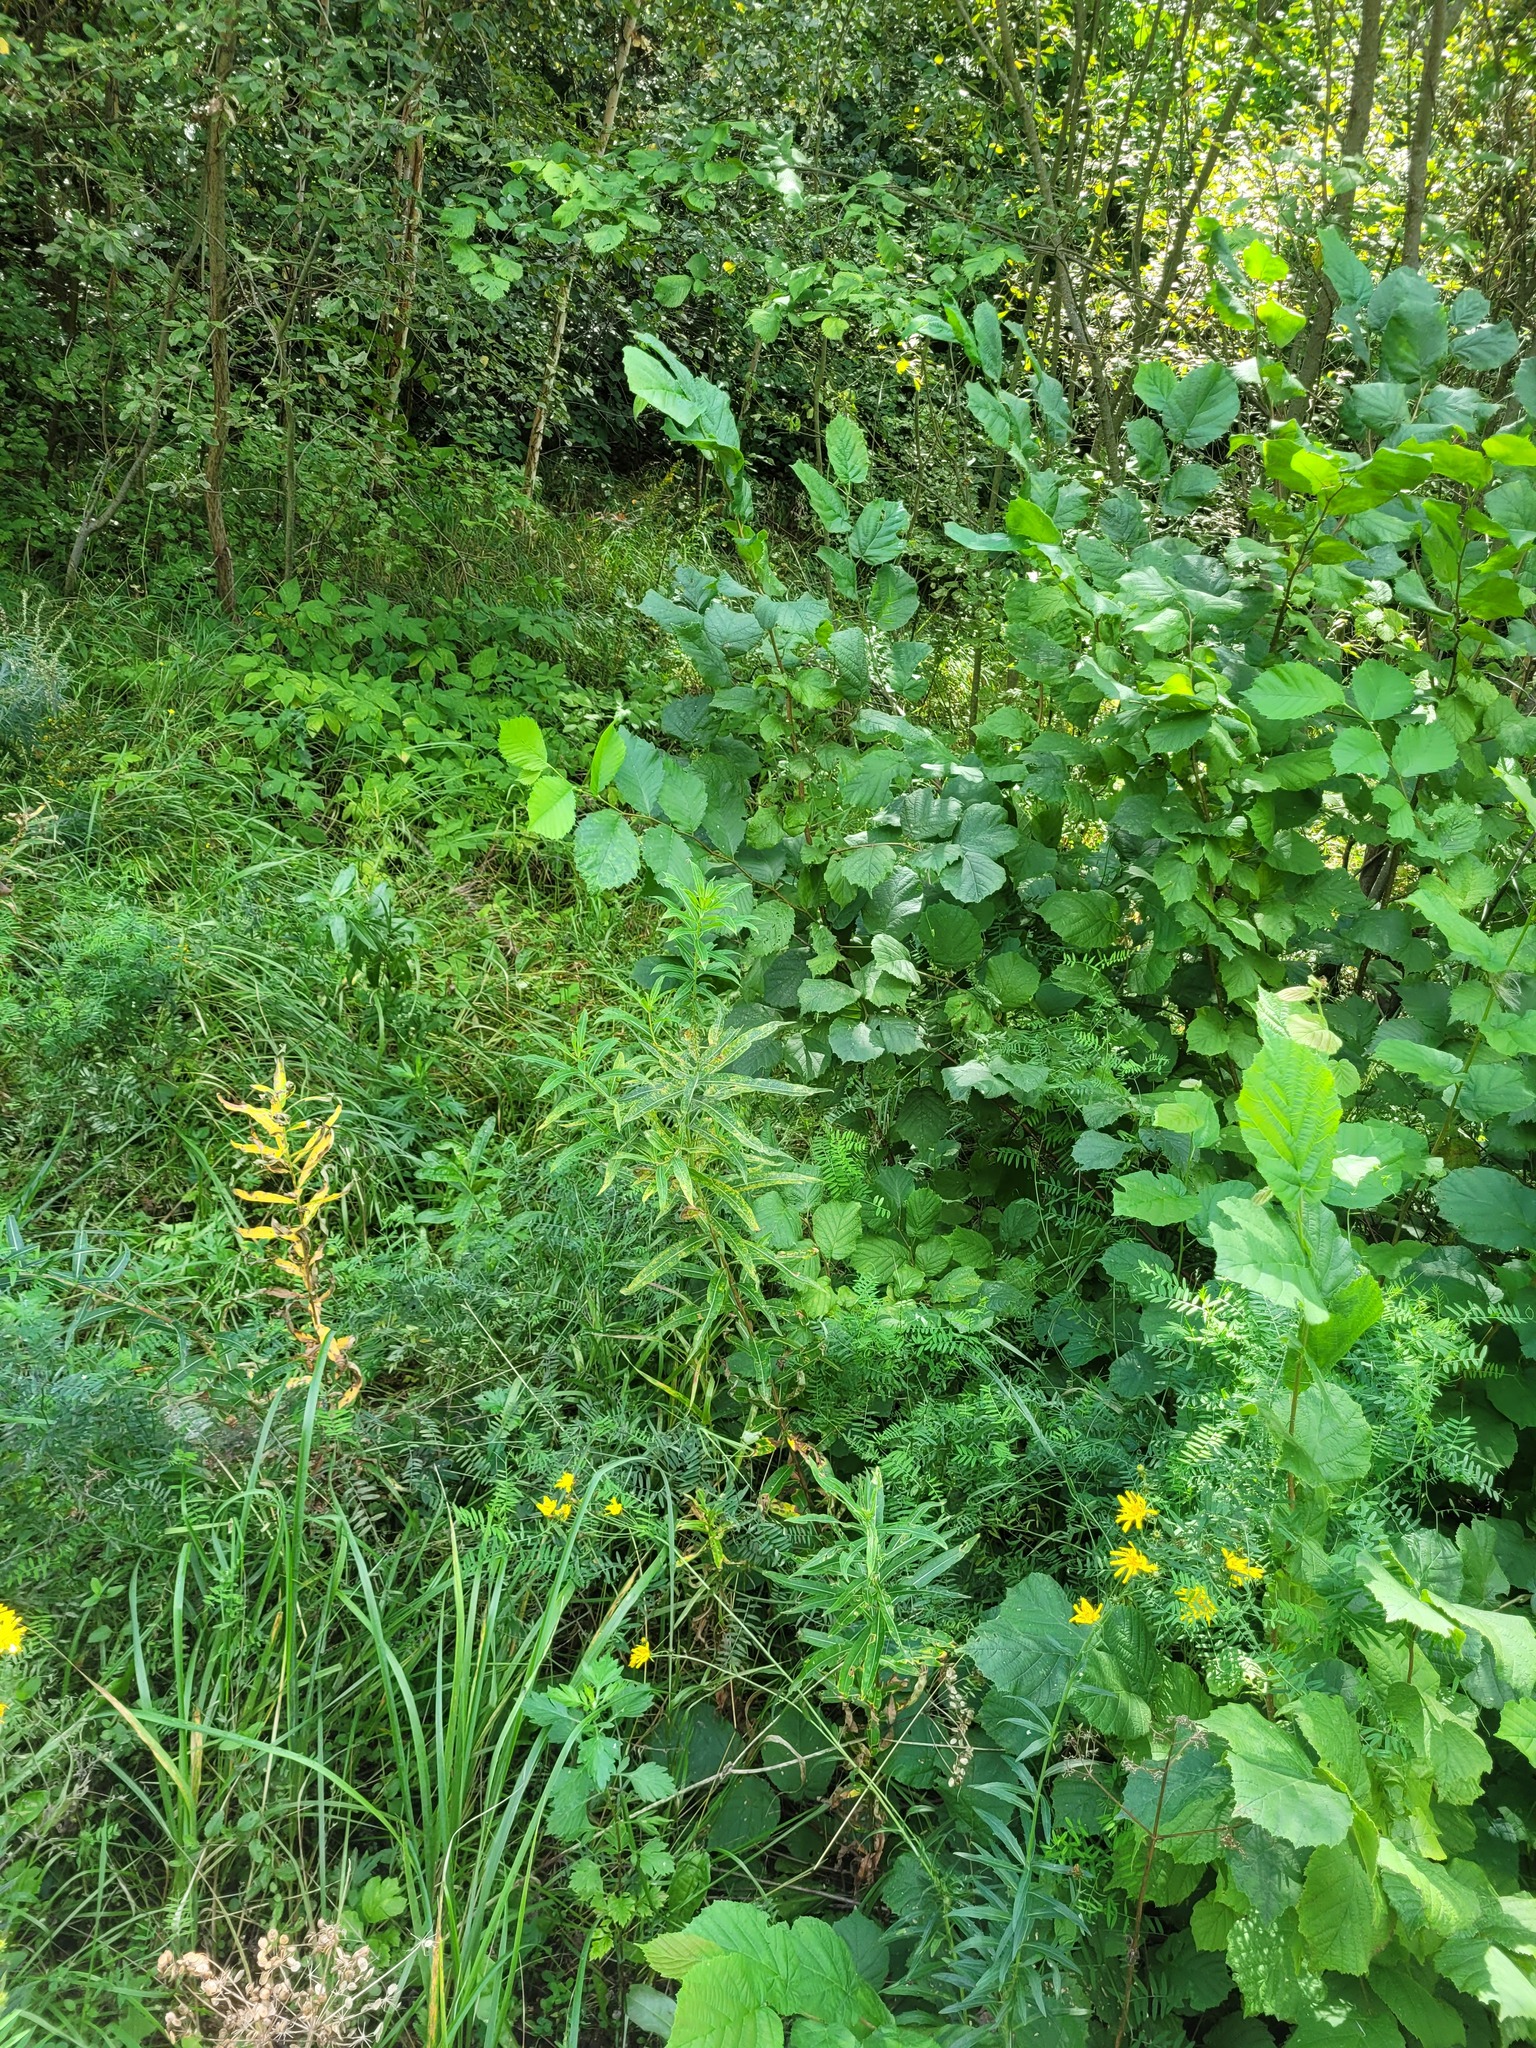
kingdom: Plantae
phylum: Tracheophyta
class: Magnoliopsida
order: Myrtales
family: Onagraceae
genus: Chamaenerion
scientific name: Chamaenerion angustifolium
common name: Fireweed
